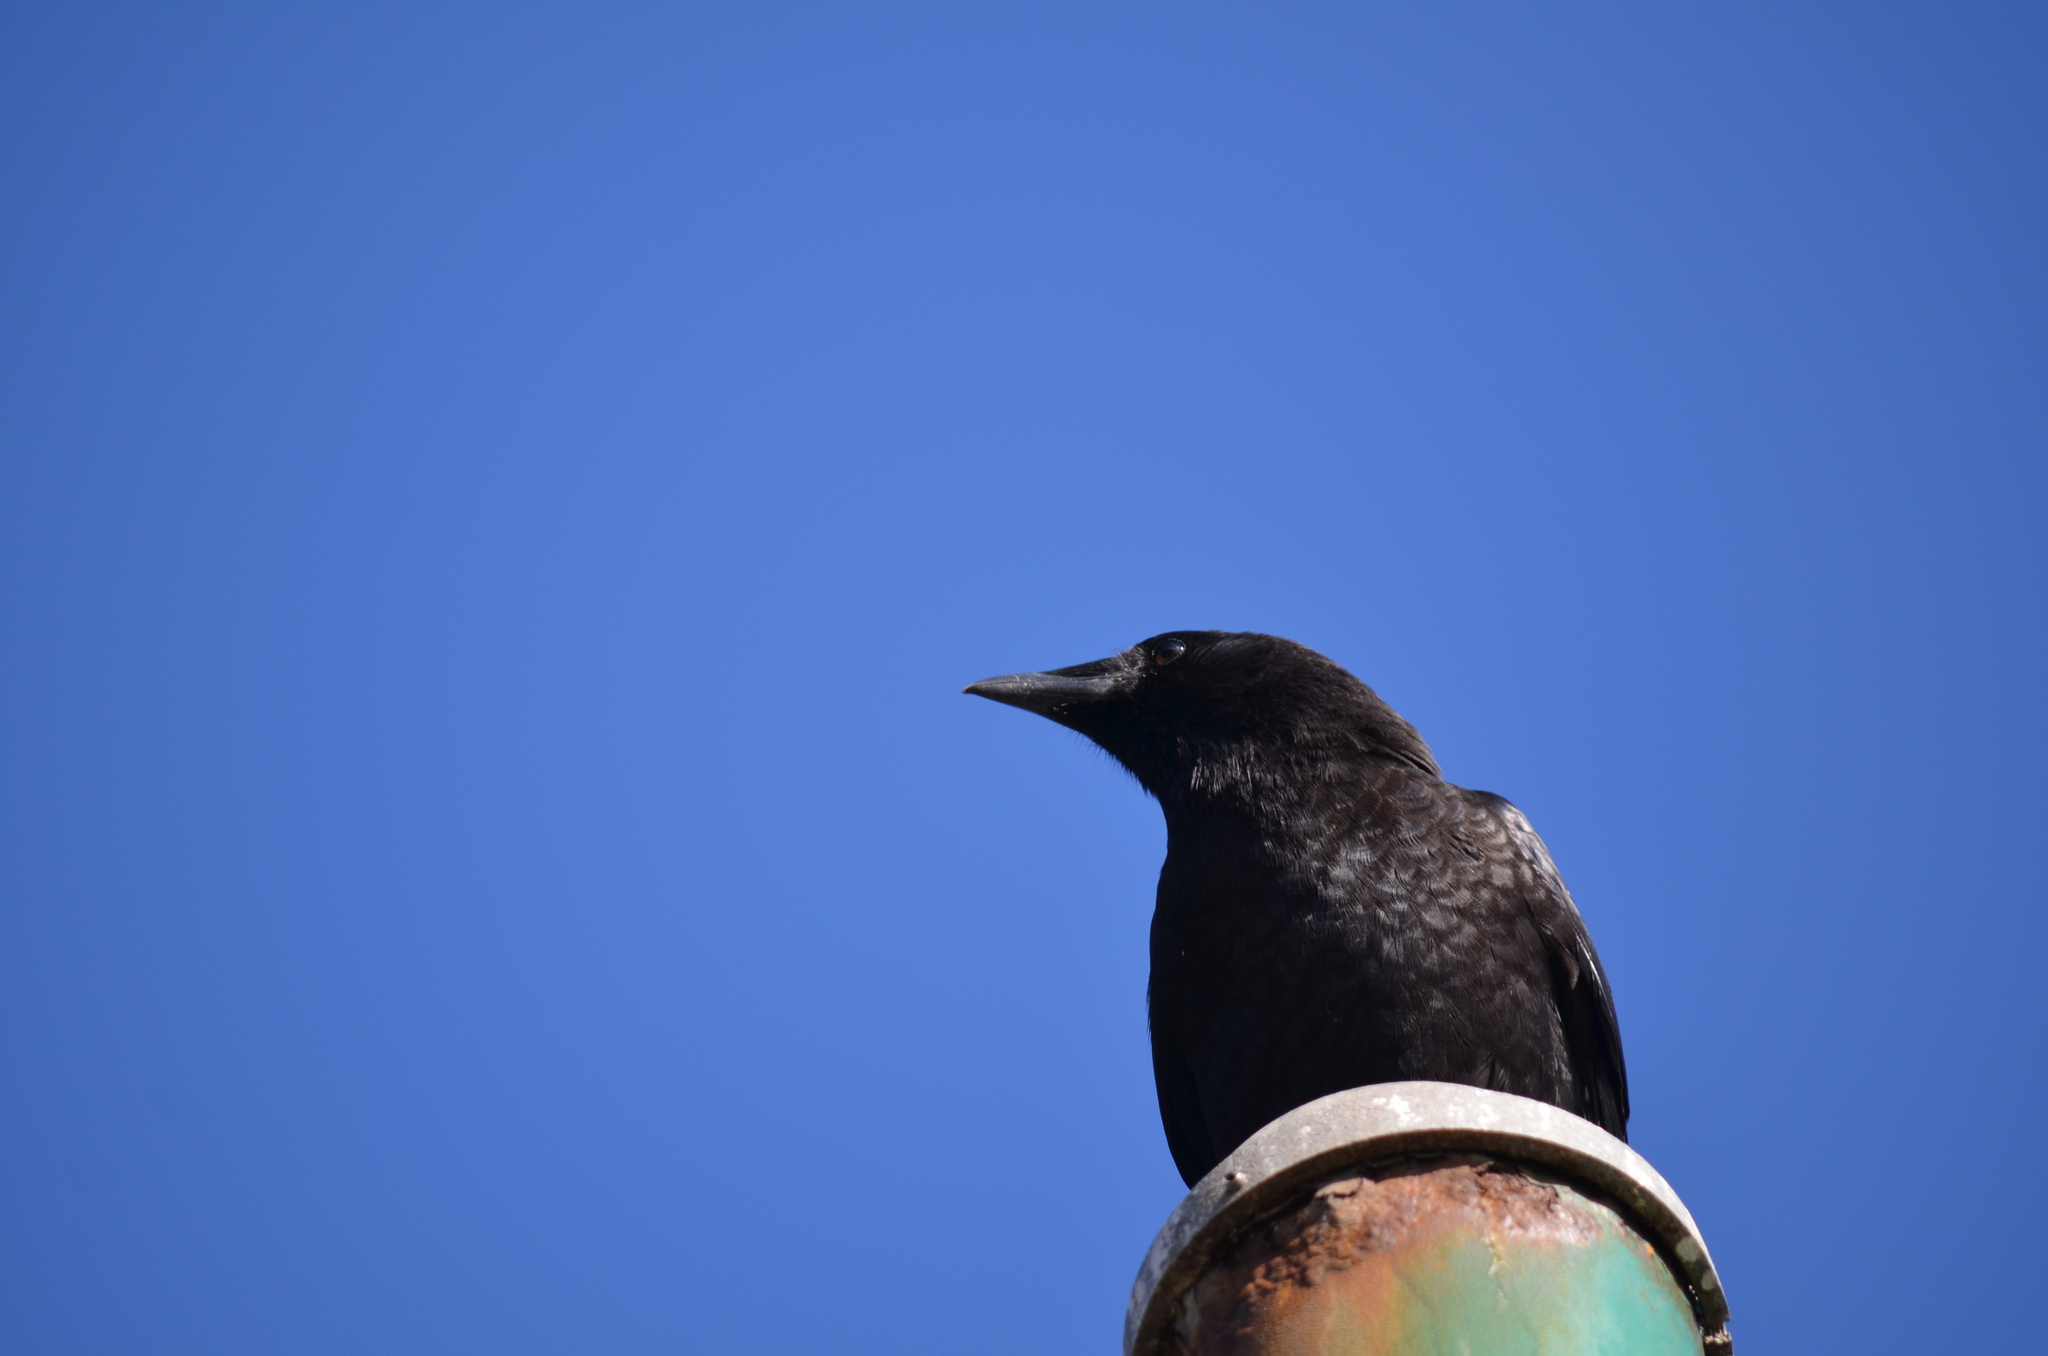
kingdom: Animalia
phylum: Chordata
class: Aves
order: Passeriformes
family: Corvidae
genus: Corvus
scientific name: Corvus brachyrhynchos
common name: American crow
